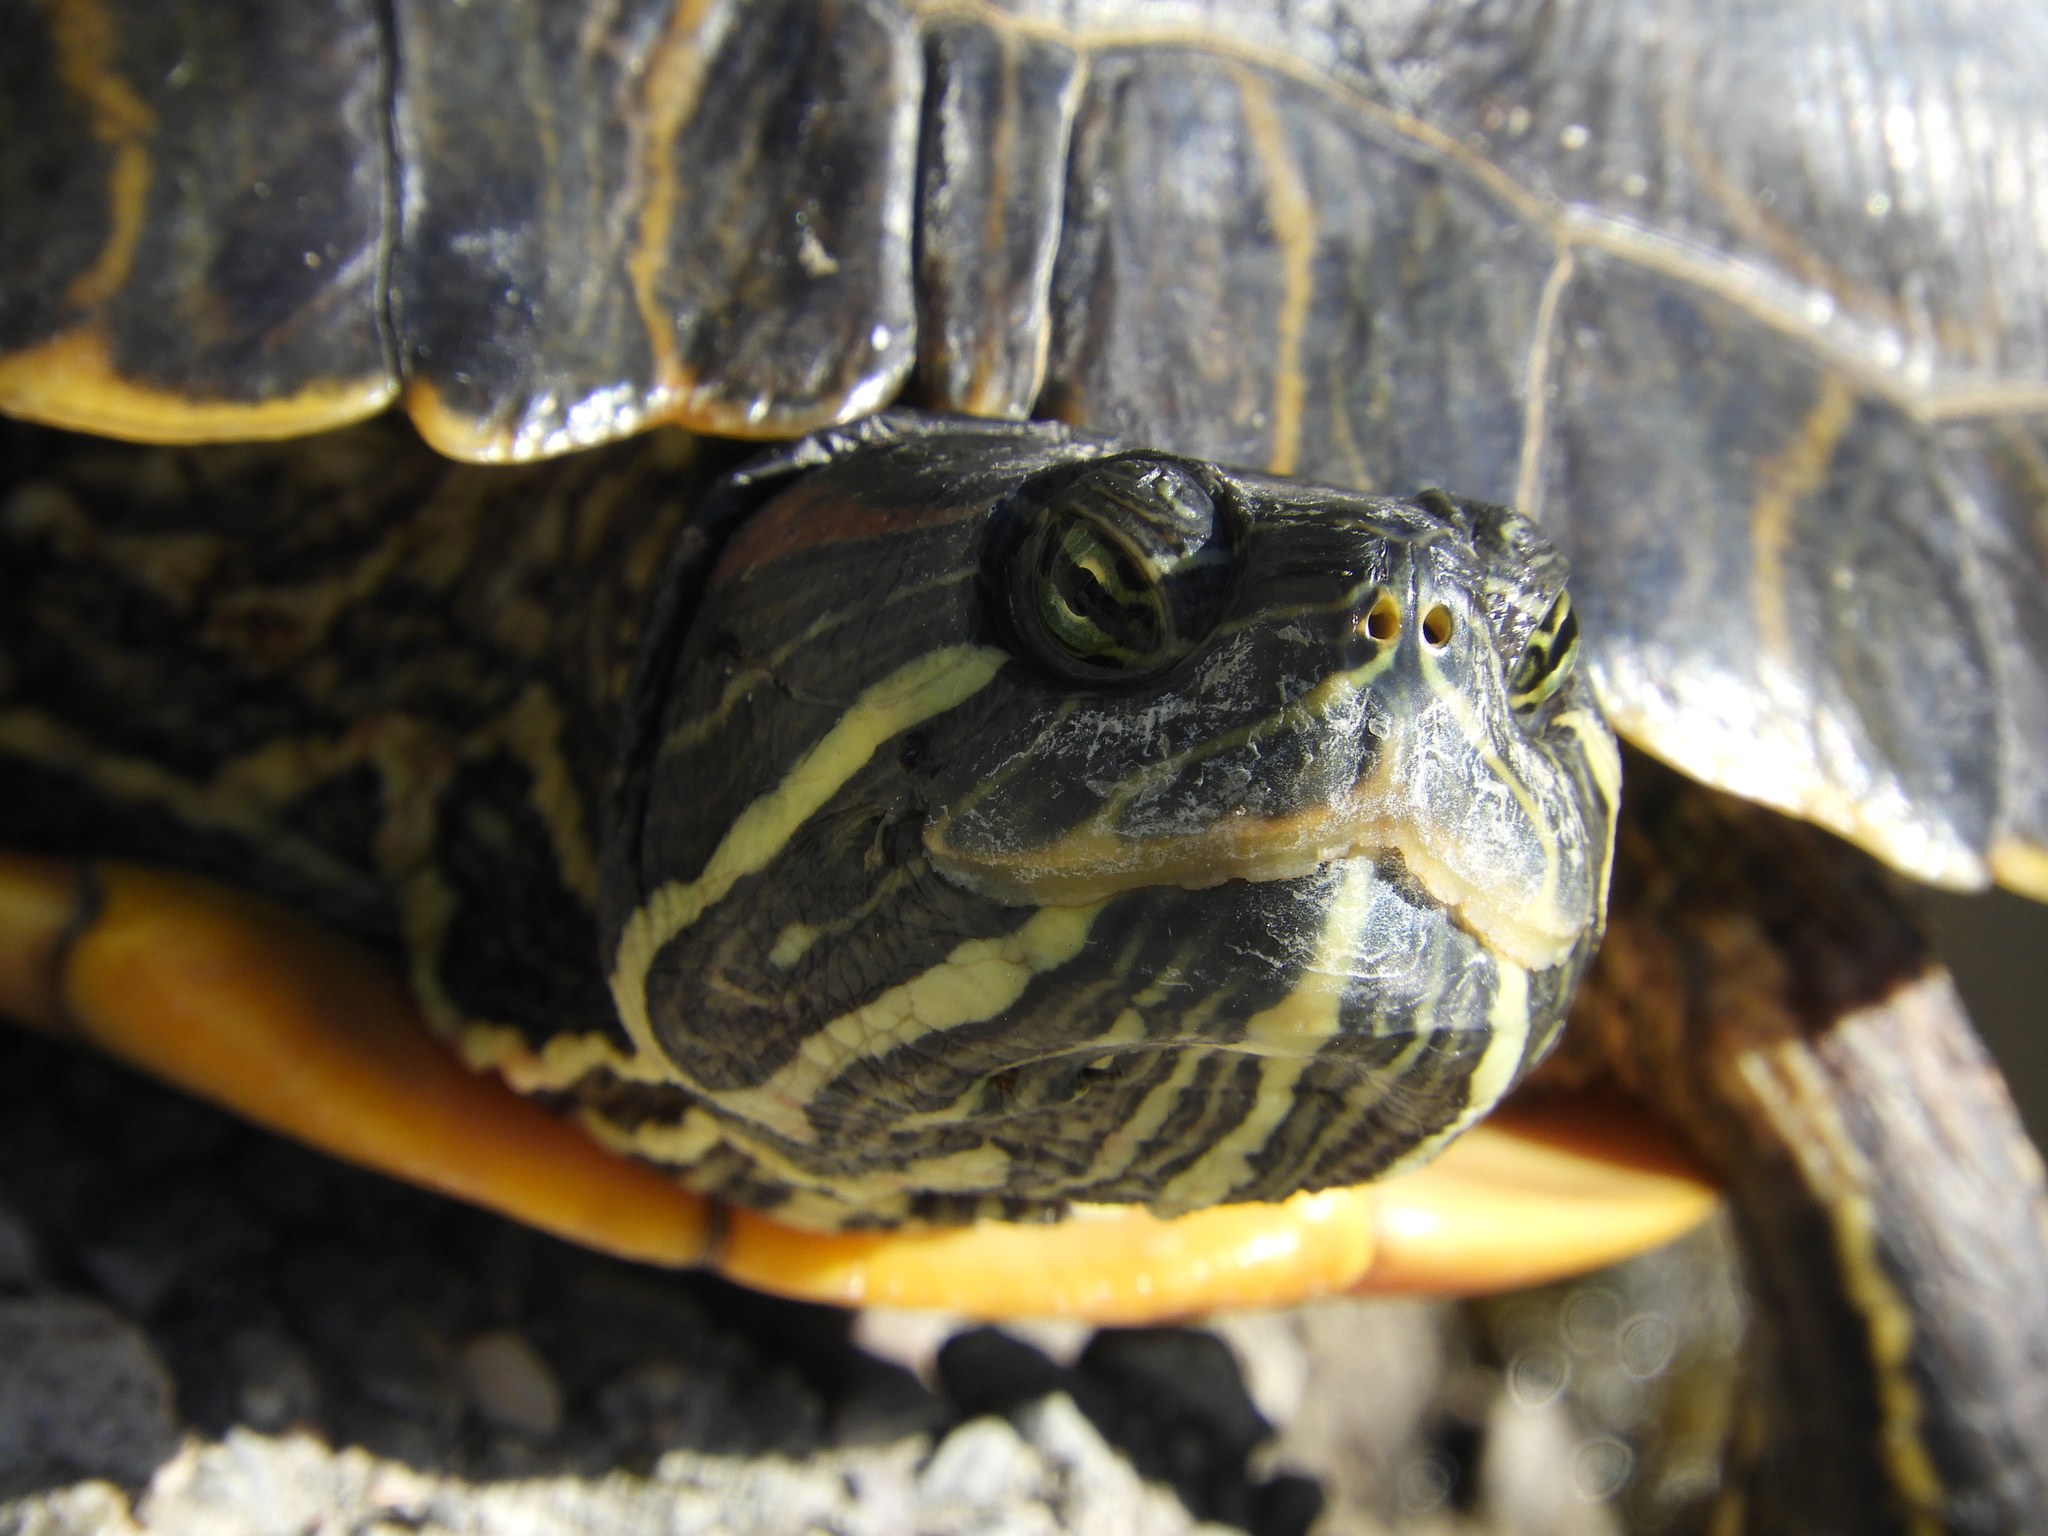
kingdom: Animalia
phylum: Chordata
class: Testudines
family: Emydidae
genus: Trachemys
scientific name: Trachemys scripta
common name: Slider
